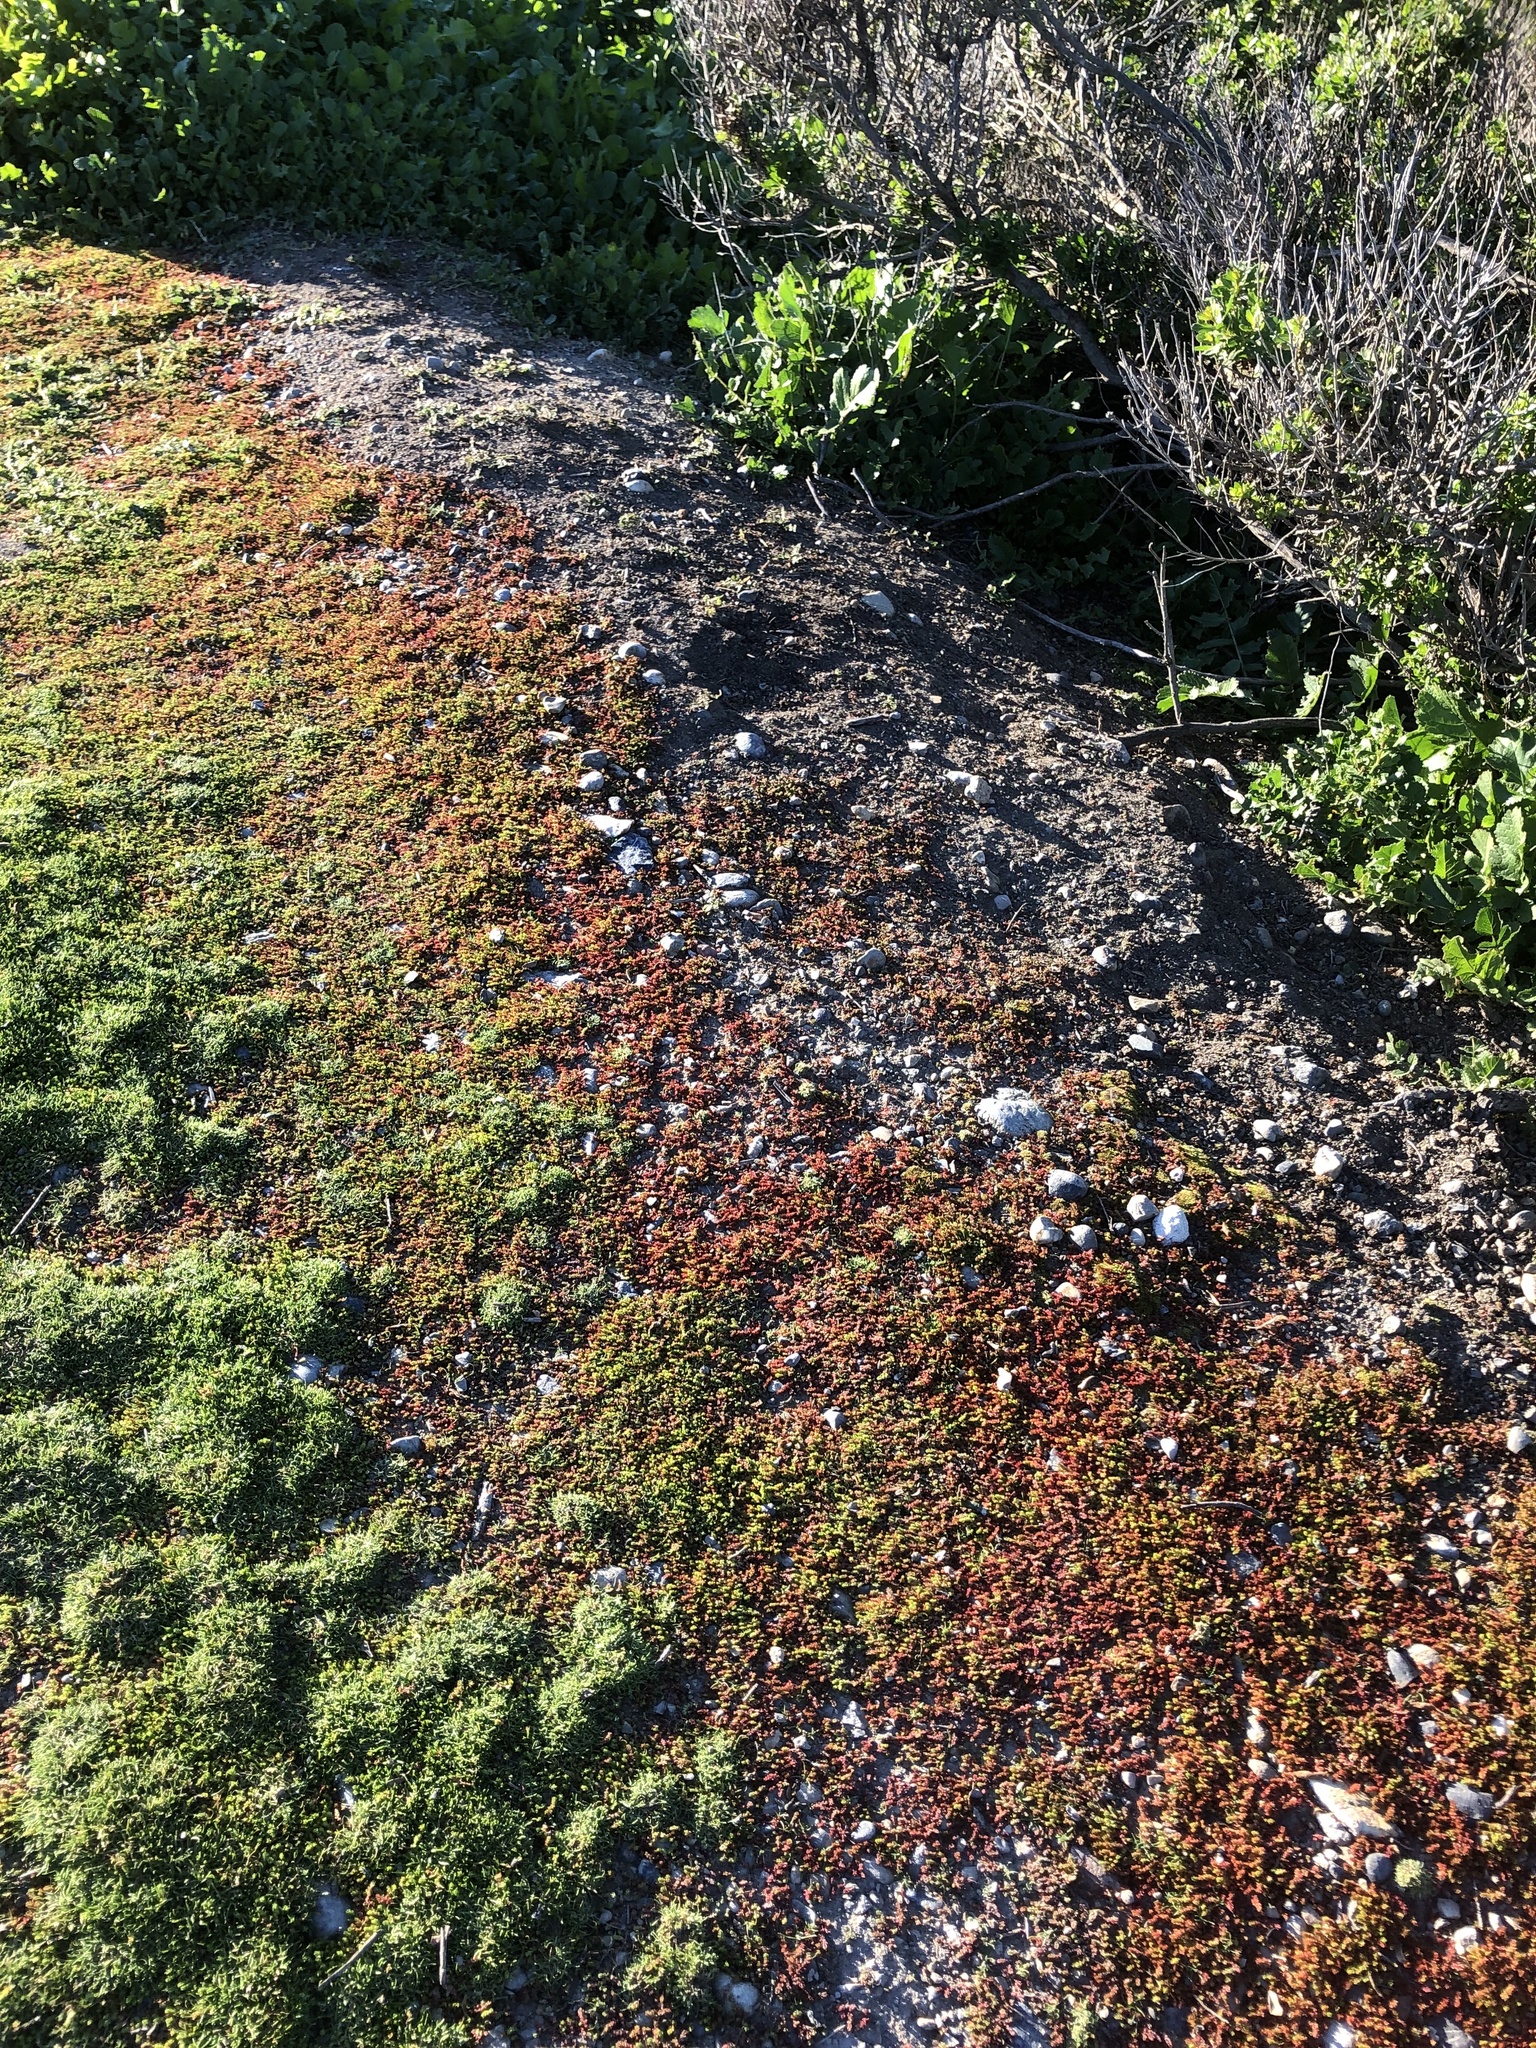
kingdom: Plantae
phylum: Tracheophyta
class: Magnoliopsida
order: Saxifragales
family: Crassulaceae
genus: Crassula
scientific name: Crassula tillaea
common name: Mossy stonecrop
